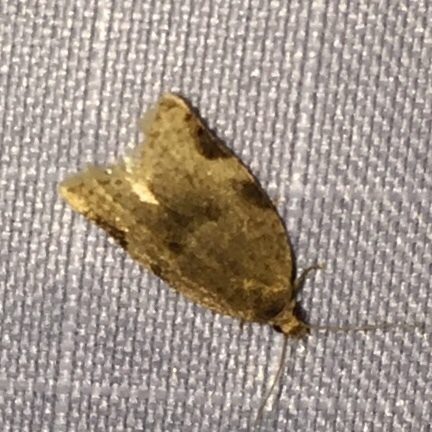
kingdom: Animalia
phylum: Arthropoda
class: Insecta
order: Lepidoptera
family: Tortricidae
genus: Clepsis
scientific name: Clepsis virescana
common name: Greenish apple moth
